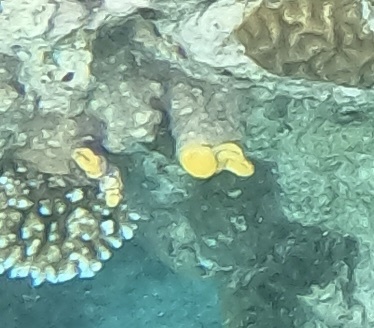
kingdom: Animalia
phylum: Chordata
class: Ascidiacea
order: Stolidobranchia
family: Styelidae
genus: Polycarpa
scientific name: Polycarpa aurata
